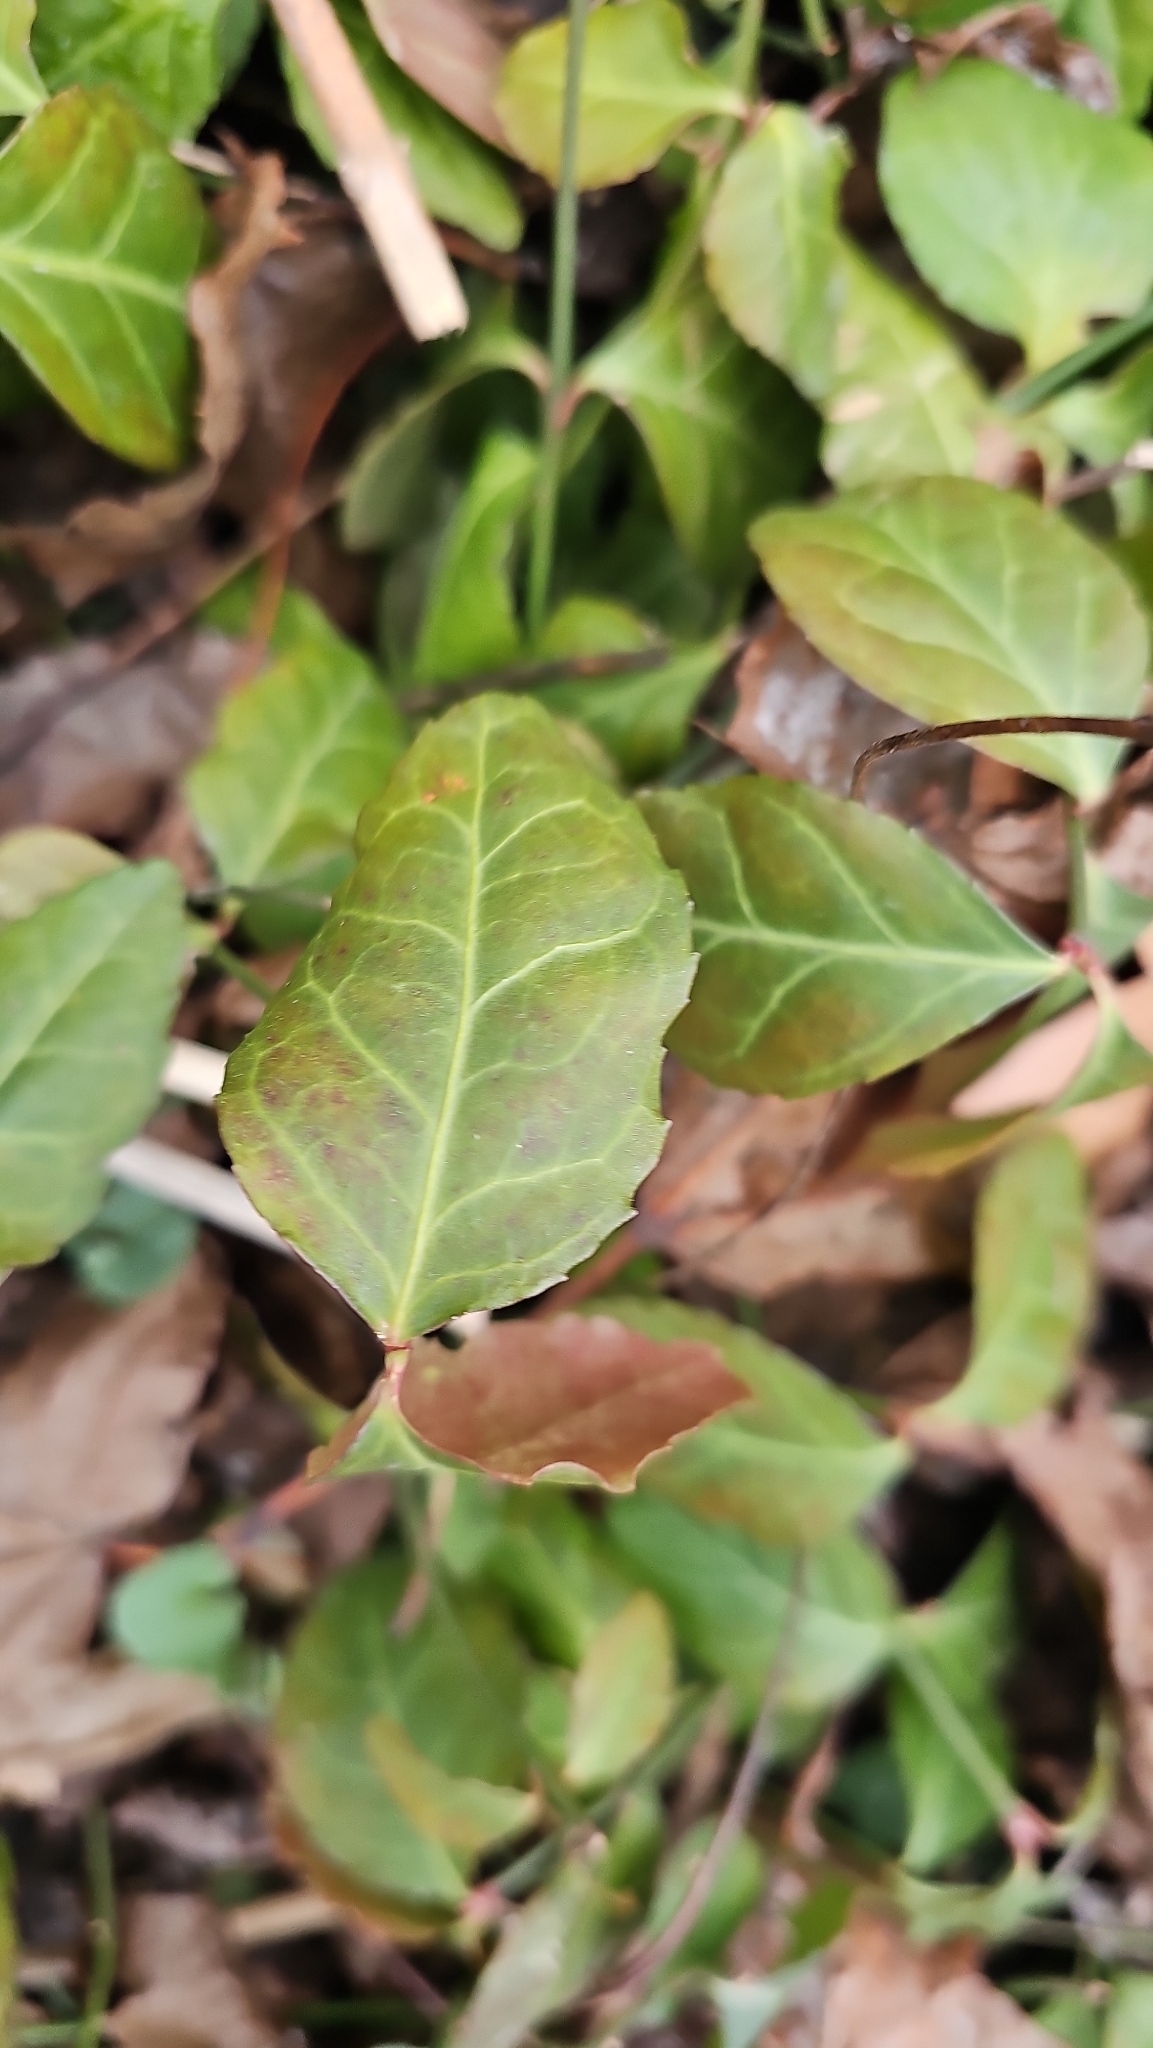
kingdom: Plantae
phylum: Tracheophyta
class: Magnoliopsida
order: Celastrales
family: Celastraceae
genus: Euonymus
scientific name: Euonymus fortunei
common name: Climbing euonymus
